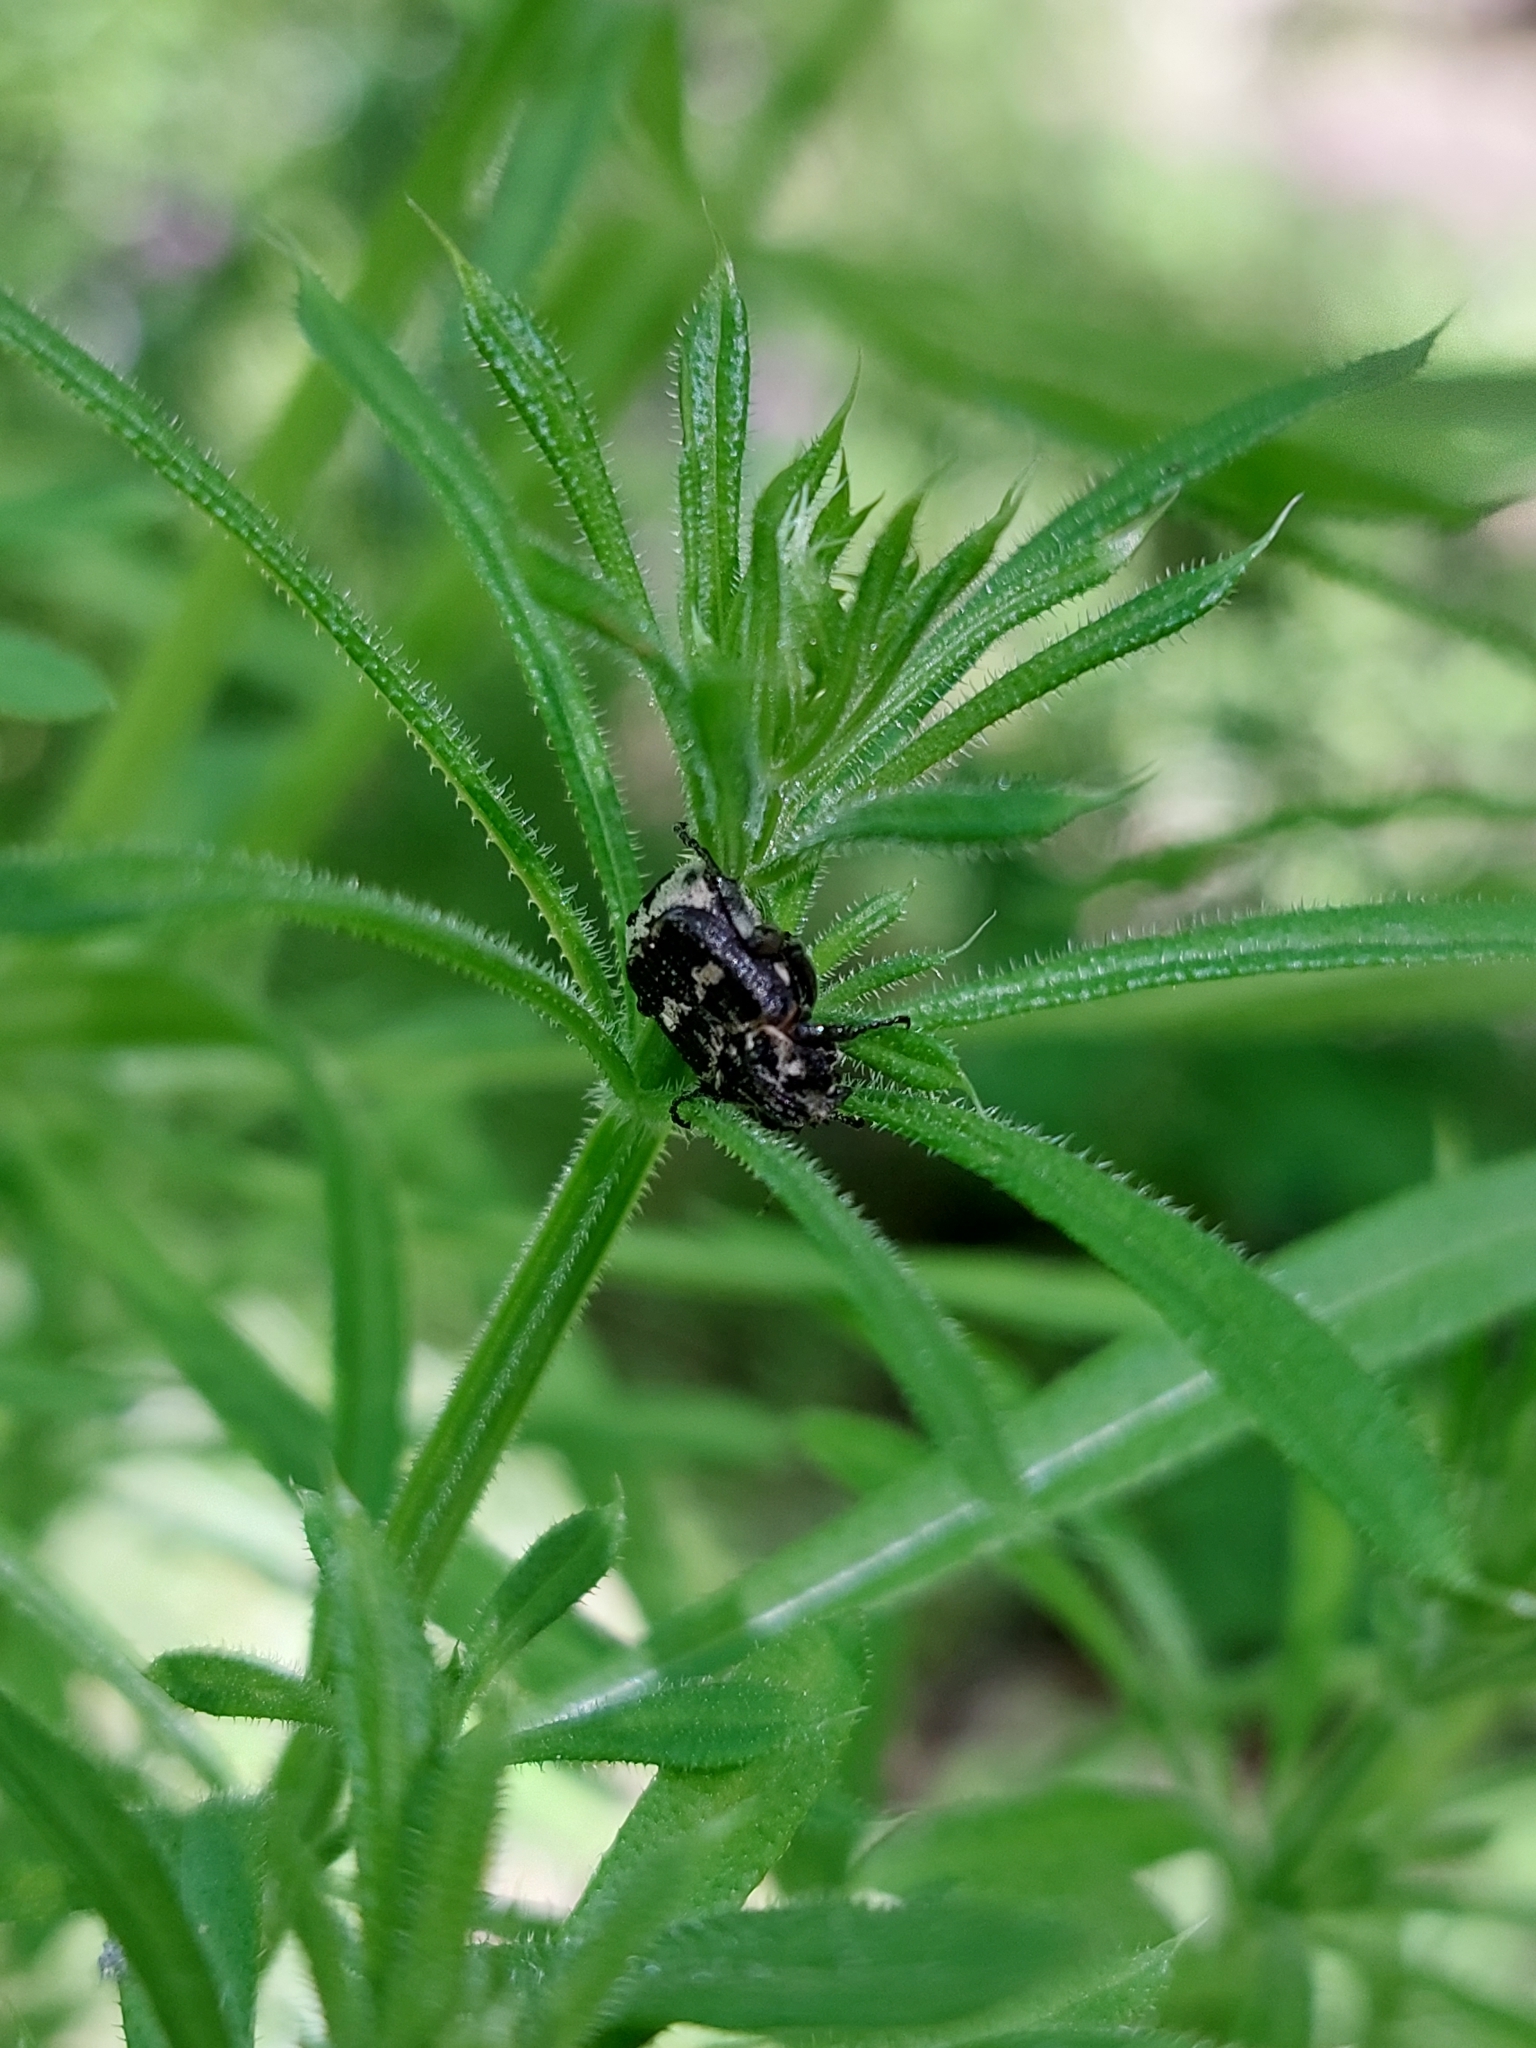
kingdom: Animalia
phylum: Arthropoda
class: Insecta
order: Coleoptera
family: Scarabaeidae
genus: Valgus
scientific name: Valgus hemipterus
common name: Bug flower chafer
